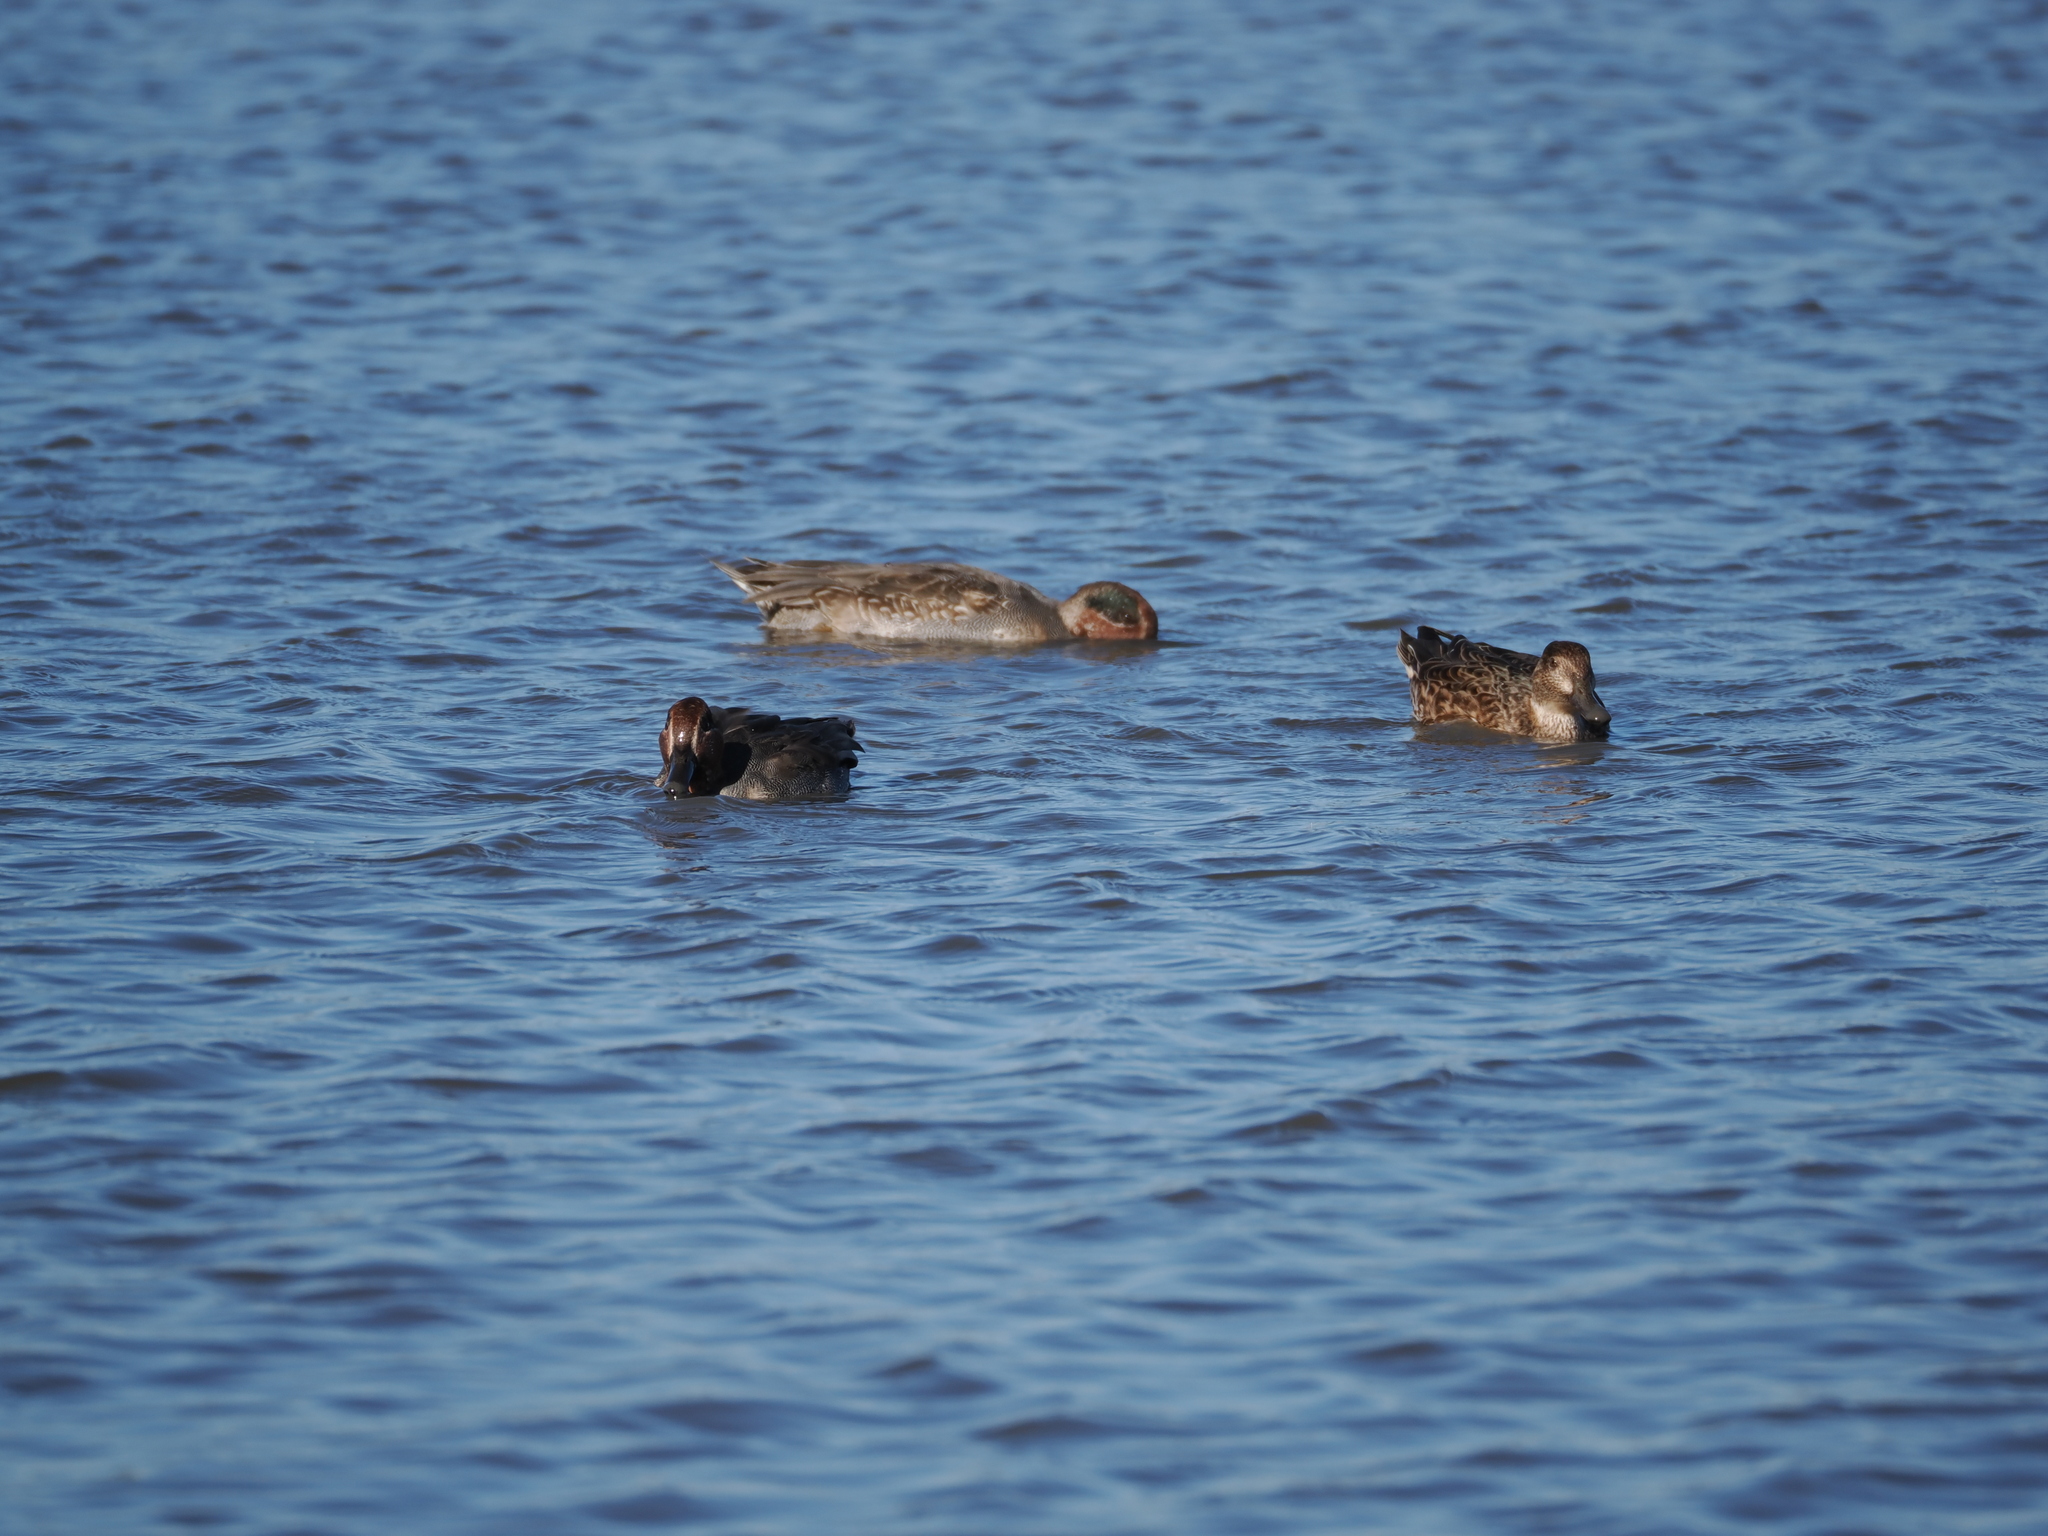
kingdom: Animalia
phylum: Chordata
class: Aves
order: Anseriformes
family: Anatidae
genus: Anas
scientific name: Anas crecca
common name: Eurasian teal
